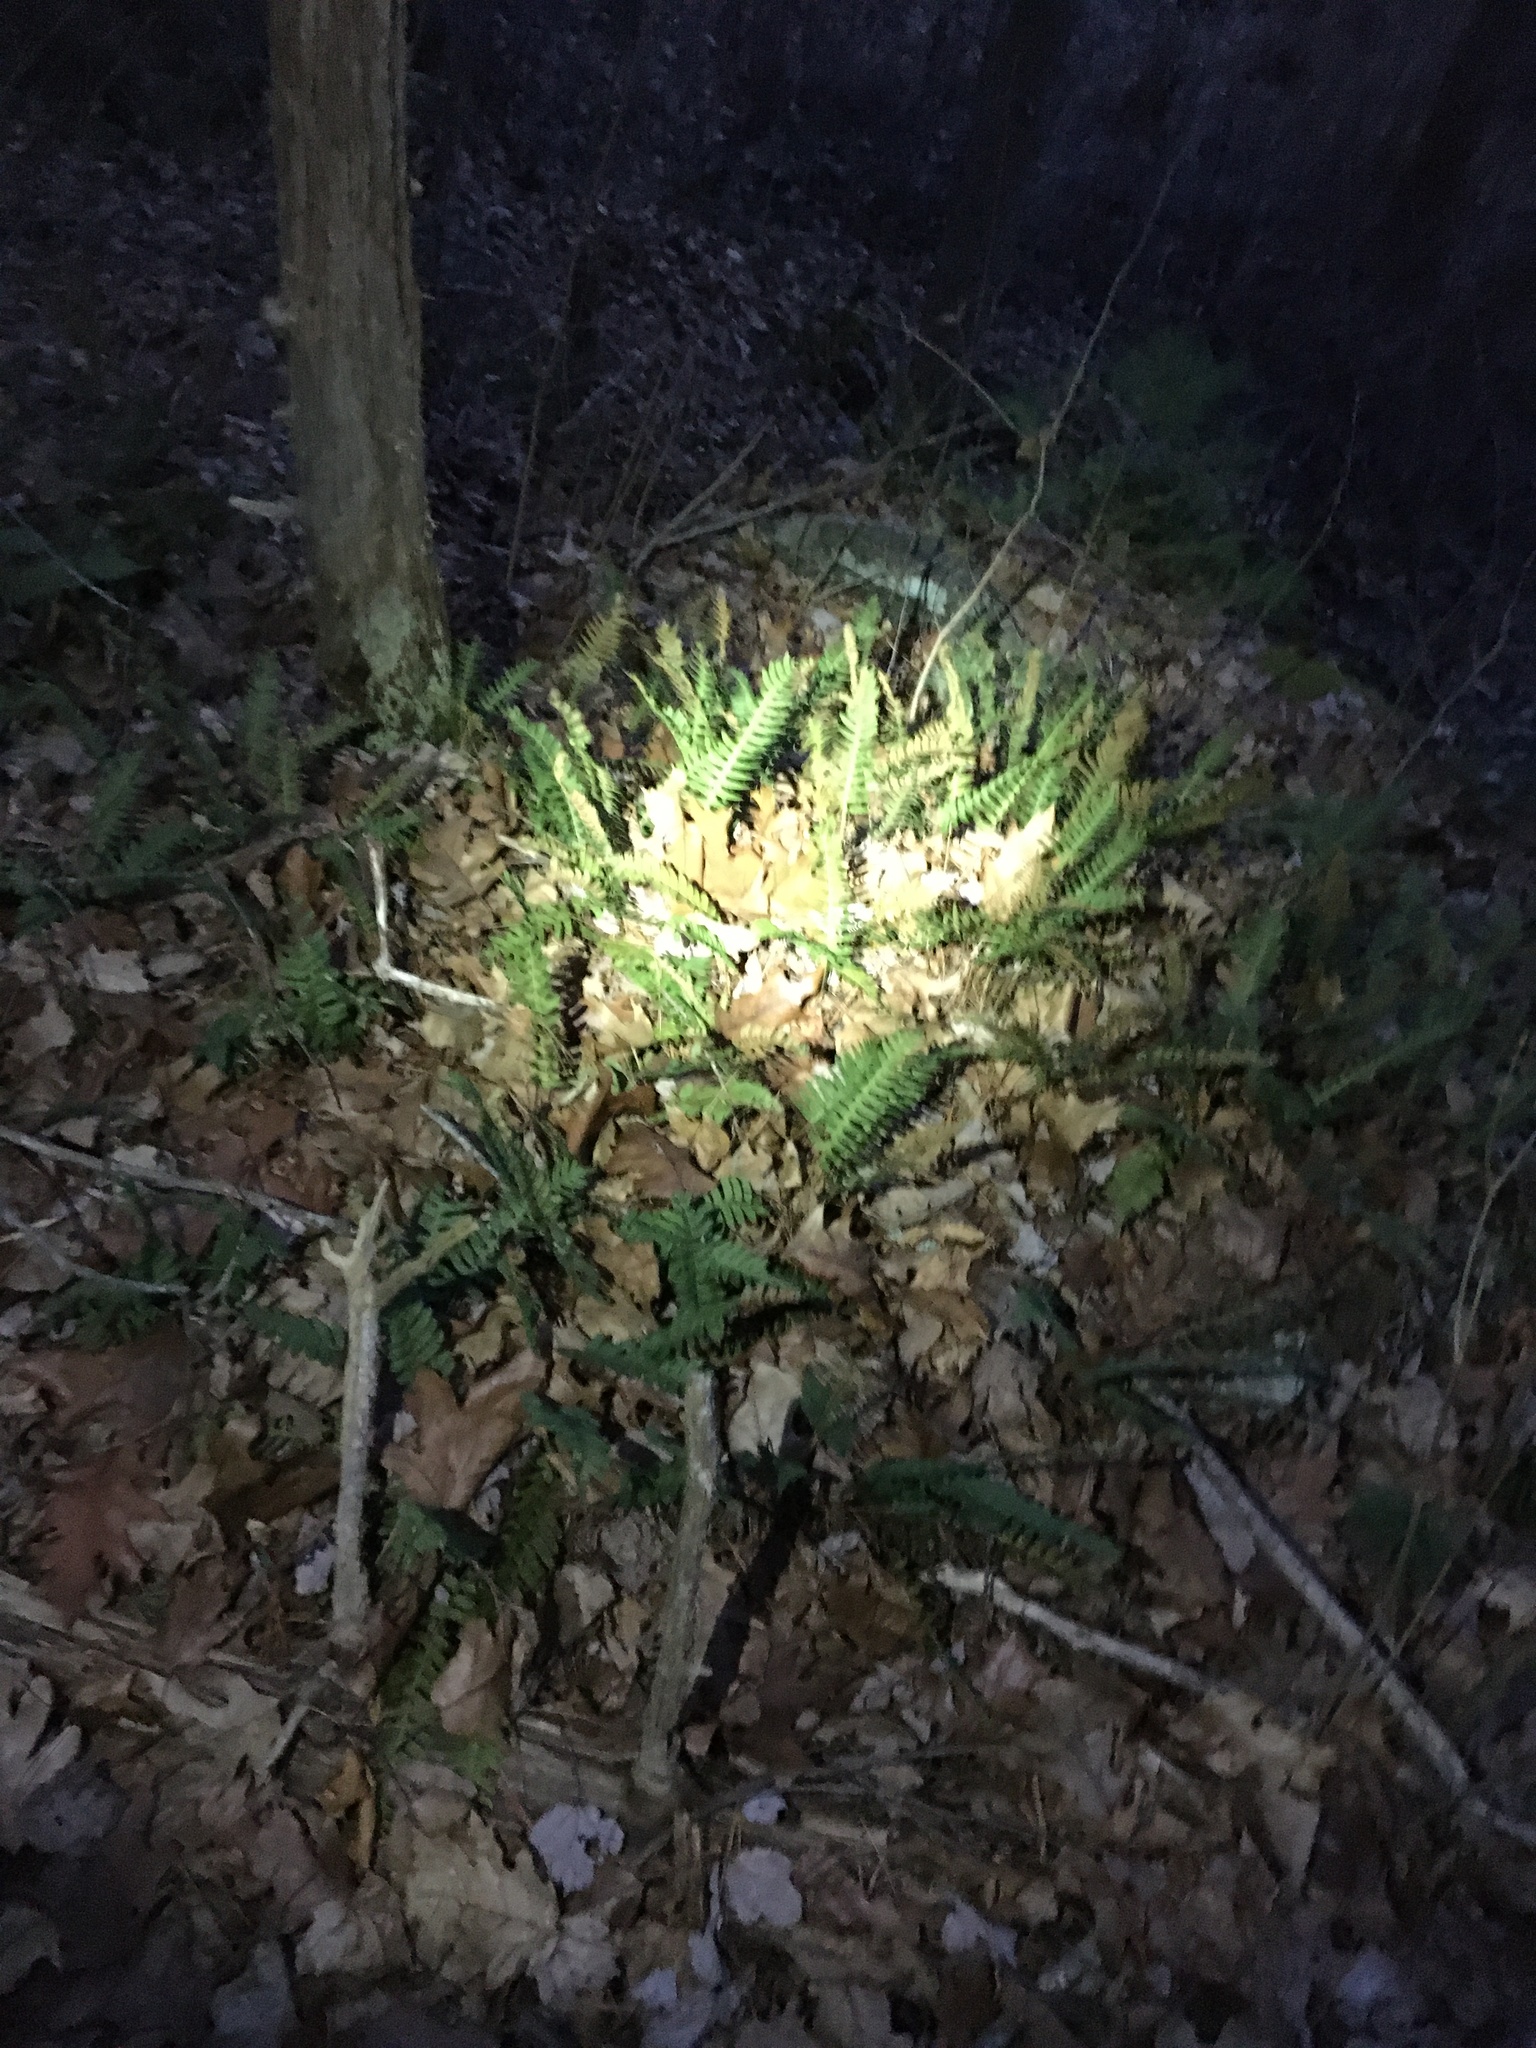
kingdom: Plantae
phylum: Tracheophyta
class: Polypodiopsida
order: Polypodiales
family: Polypodiaceae
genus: Polypodium
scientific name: Polypodium
